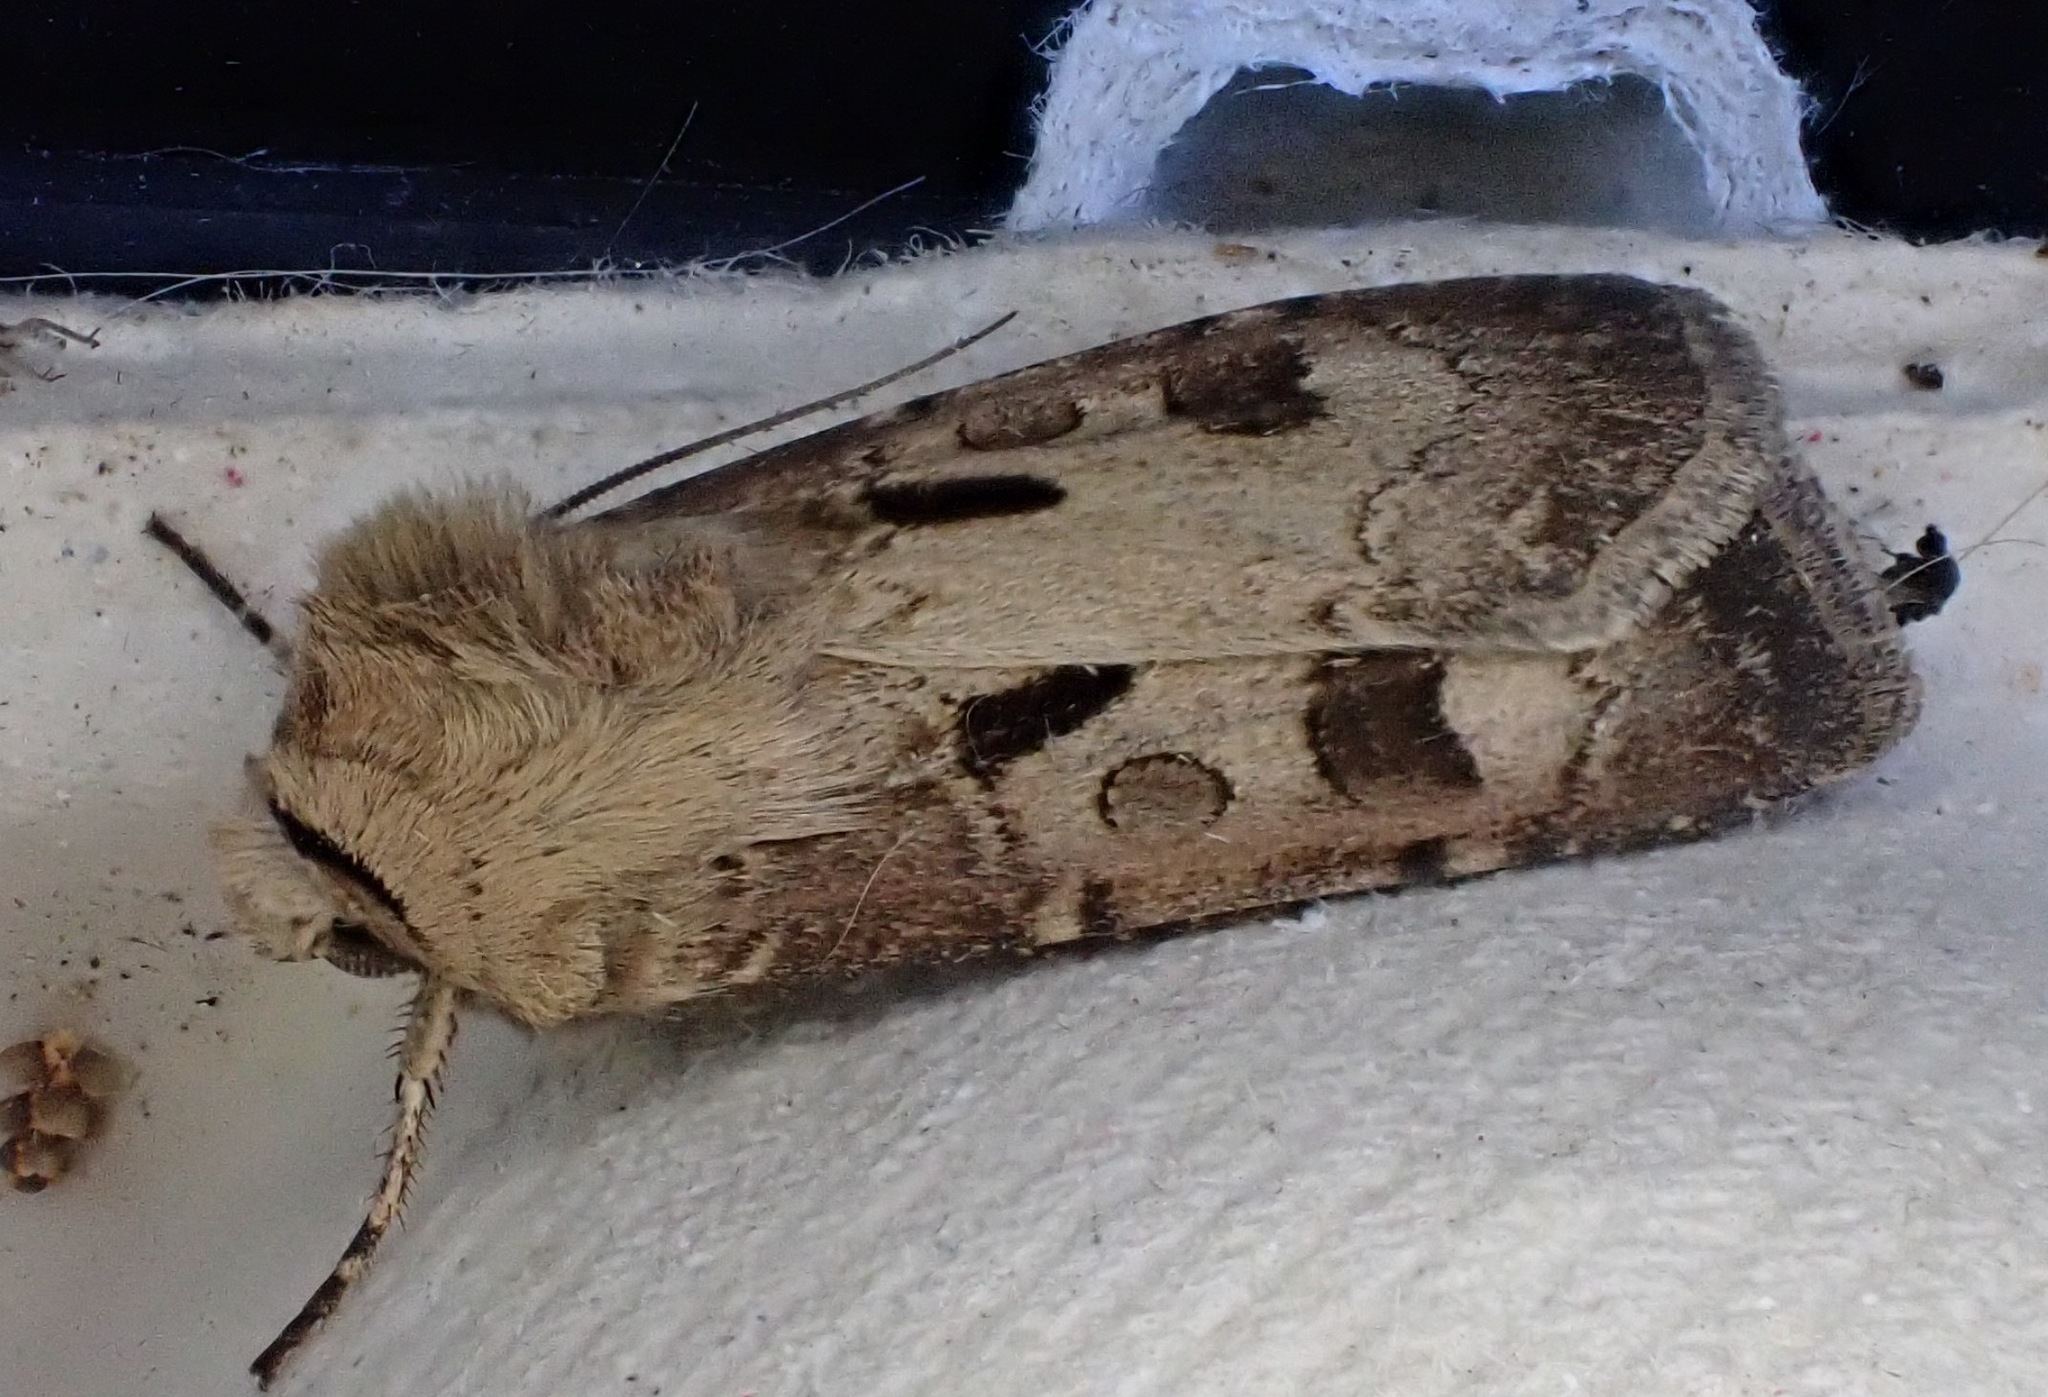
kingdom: Animalia
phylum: Arthropoda
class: Insecta
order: Lepidoptera
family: Noctuidae
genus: Agrotis
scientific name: Agrotis exclamationis
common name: Heart and dart
